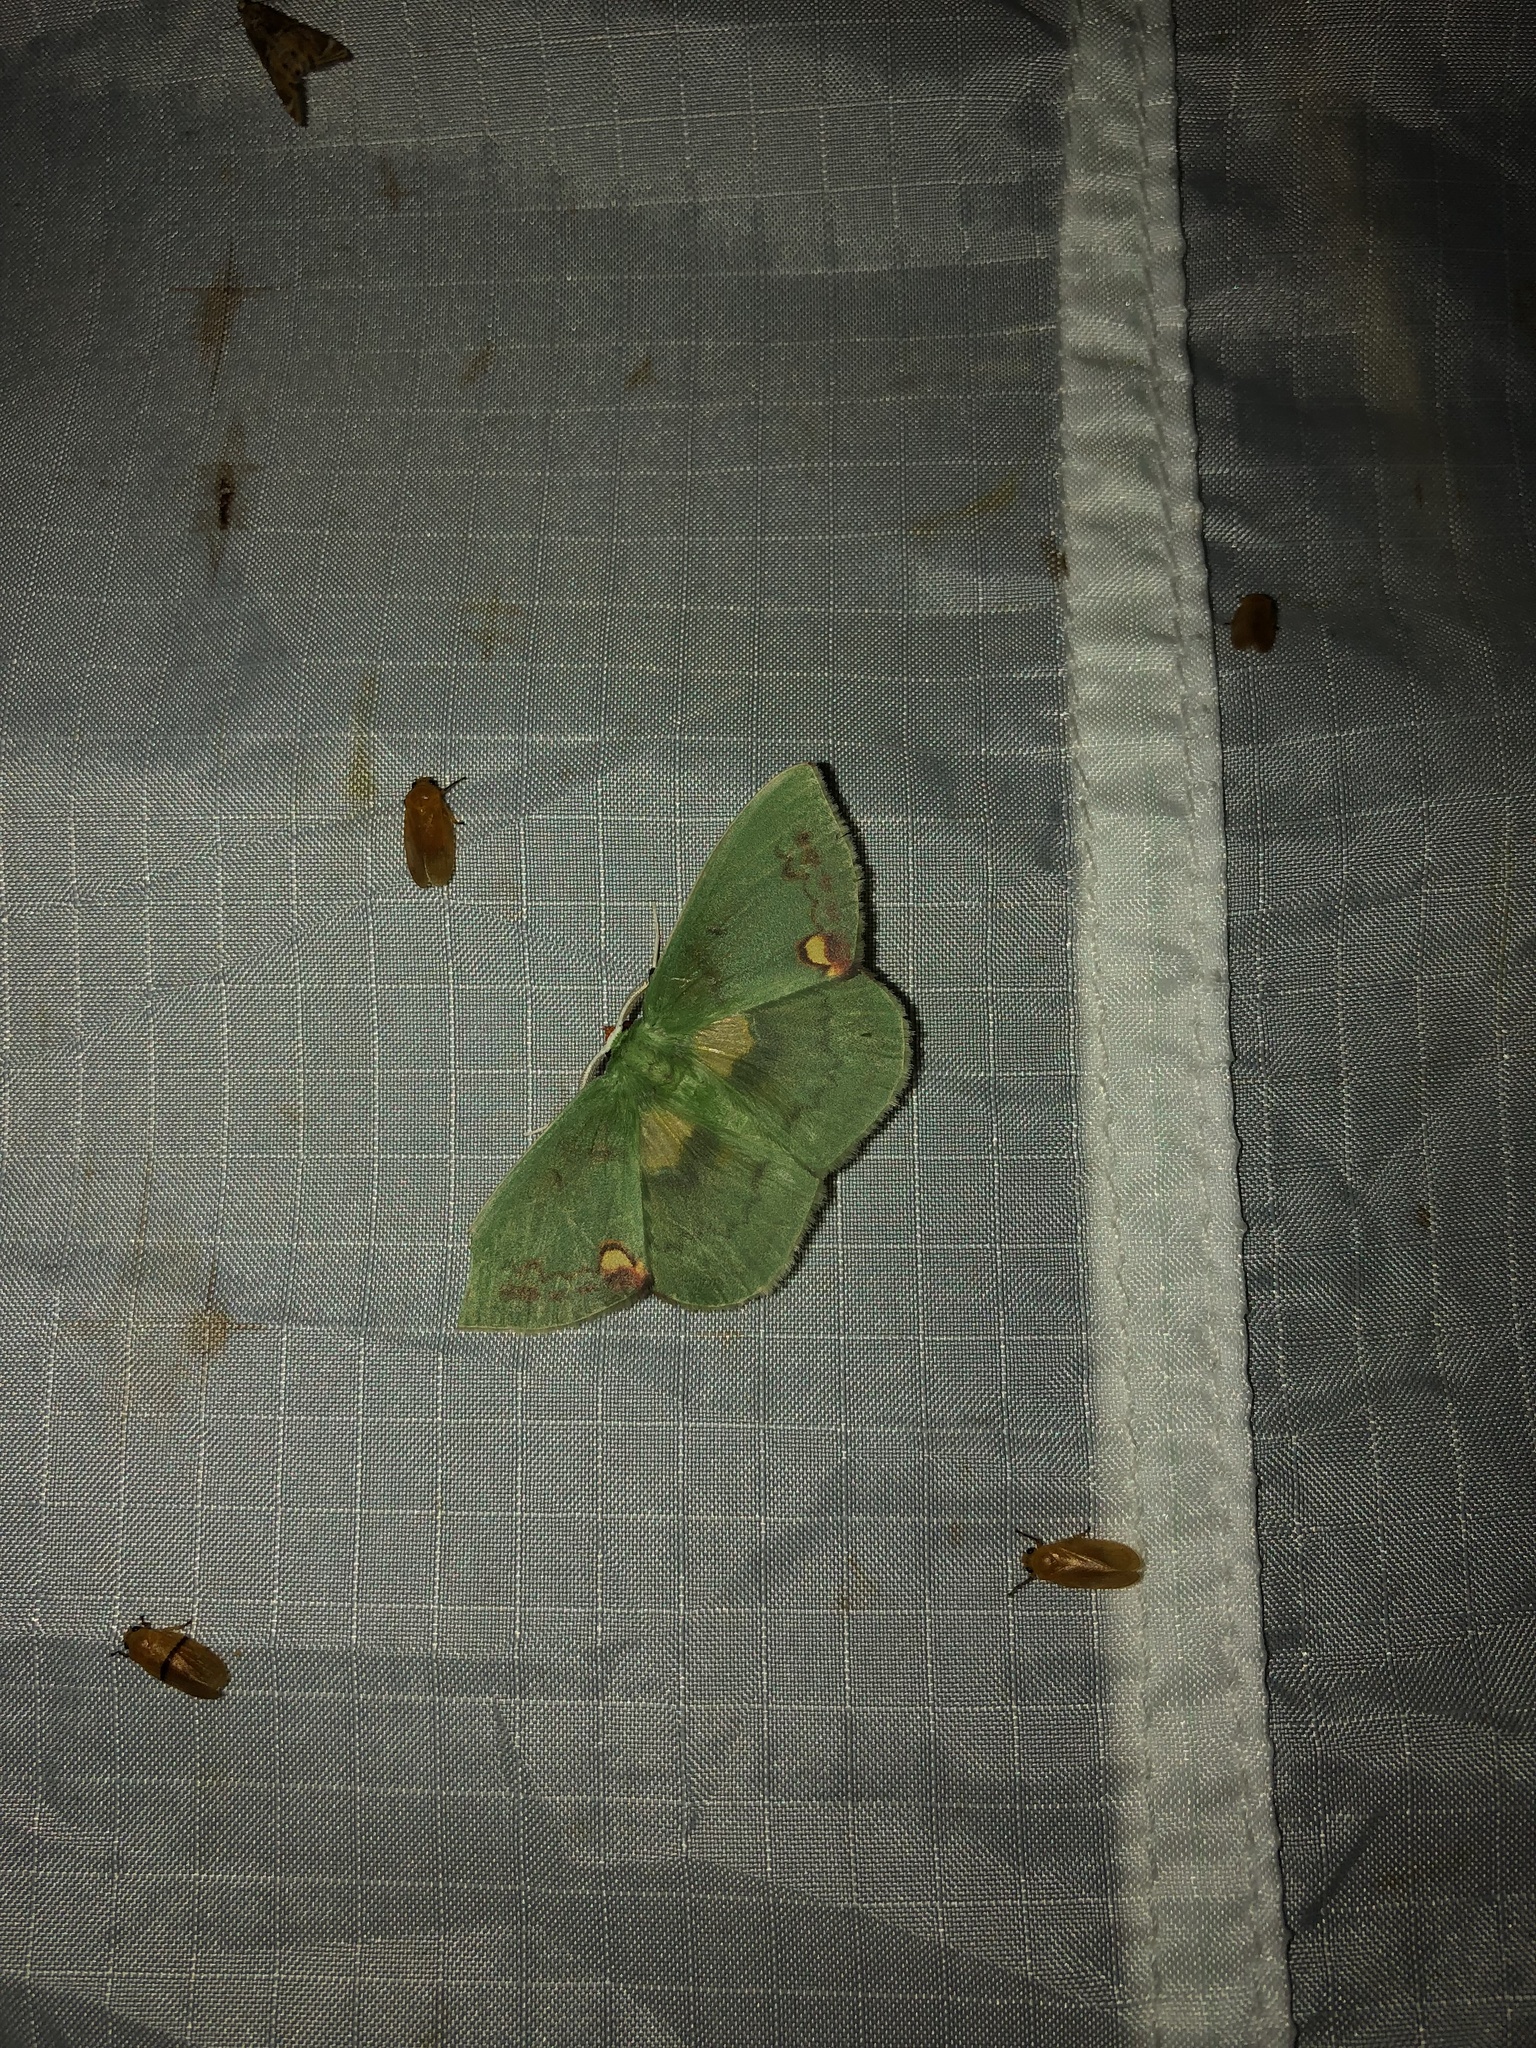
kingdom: Animalia
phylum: Arthropoda
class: Insecta
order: Lepidoptera
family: Geometridae
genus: Rhodochlora
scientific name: Rhodochlora brunneipalpis
